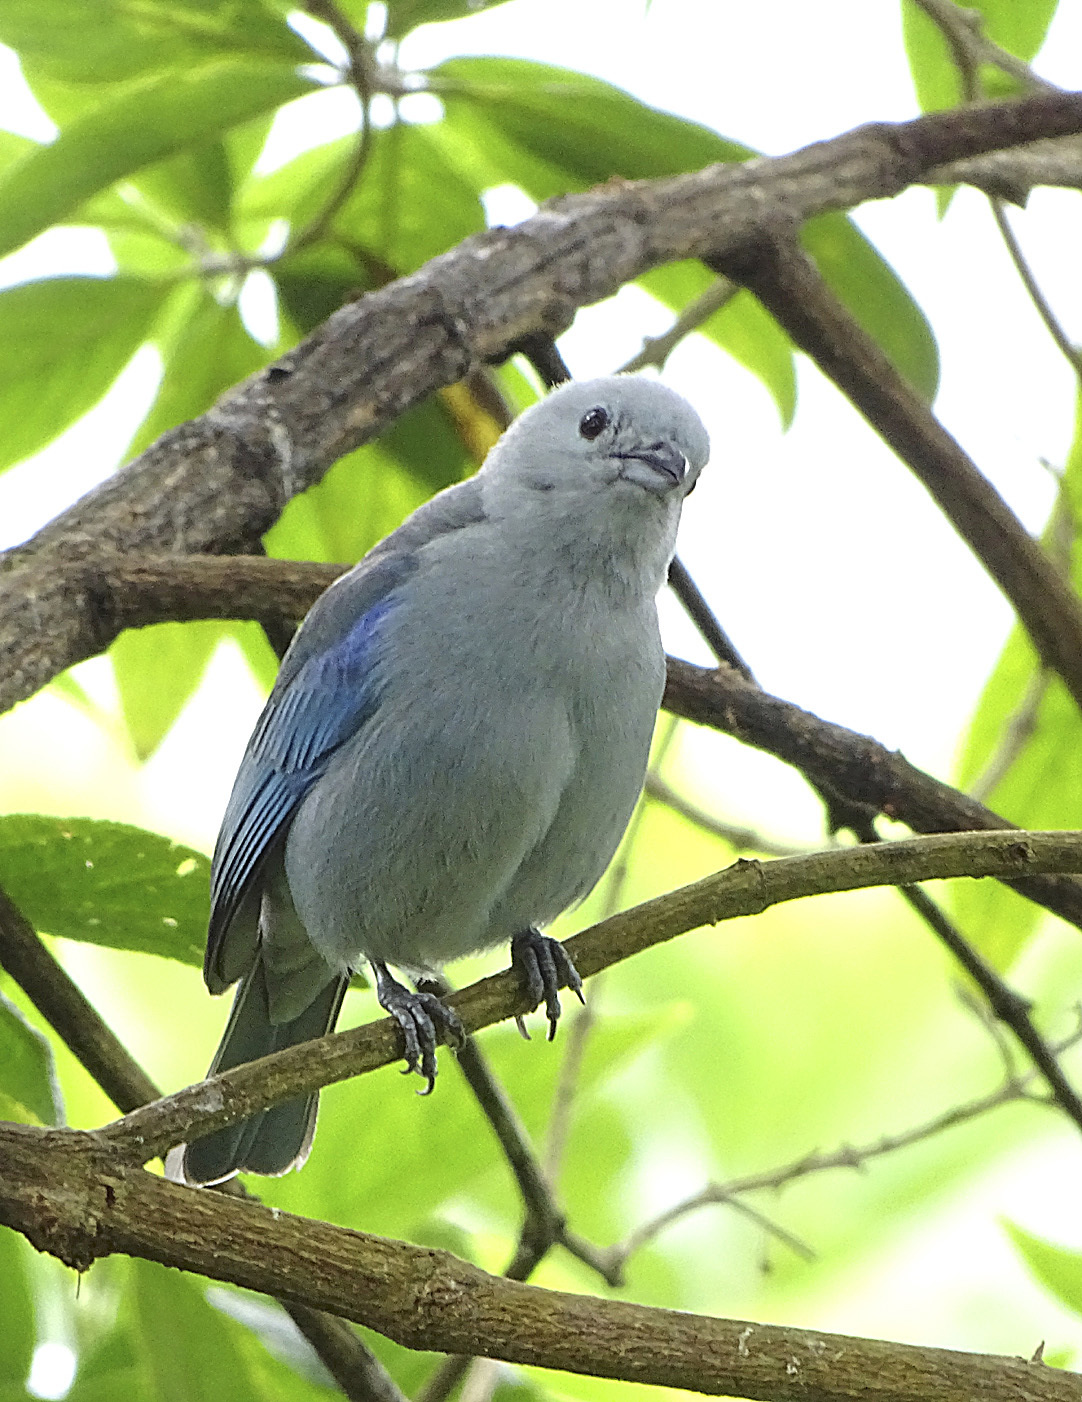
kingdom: Animalia
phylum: Chordata
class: Aves
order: Passeriformes
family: Thraupidae
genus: Thraupis
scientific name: Thraupis episcopus
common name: Blue-grey tanager
